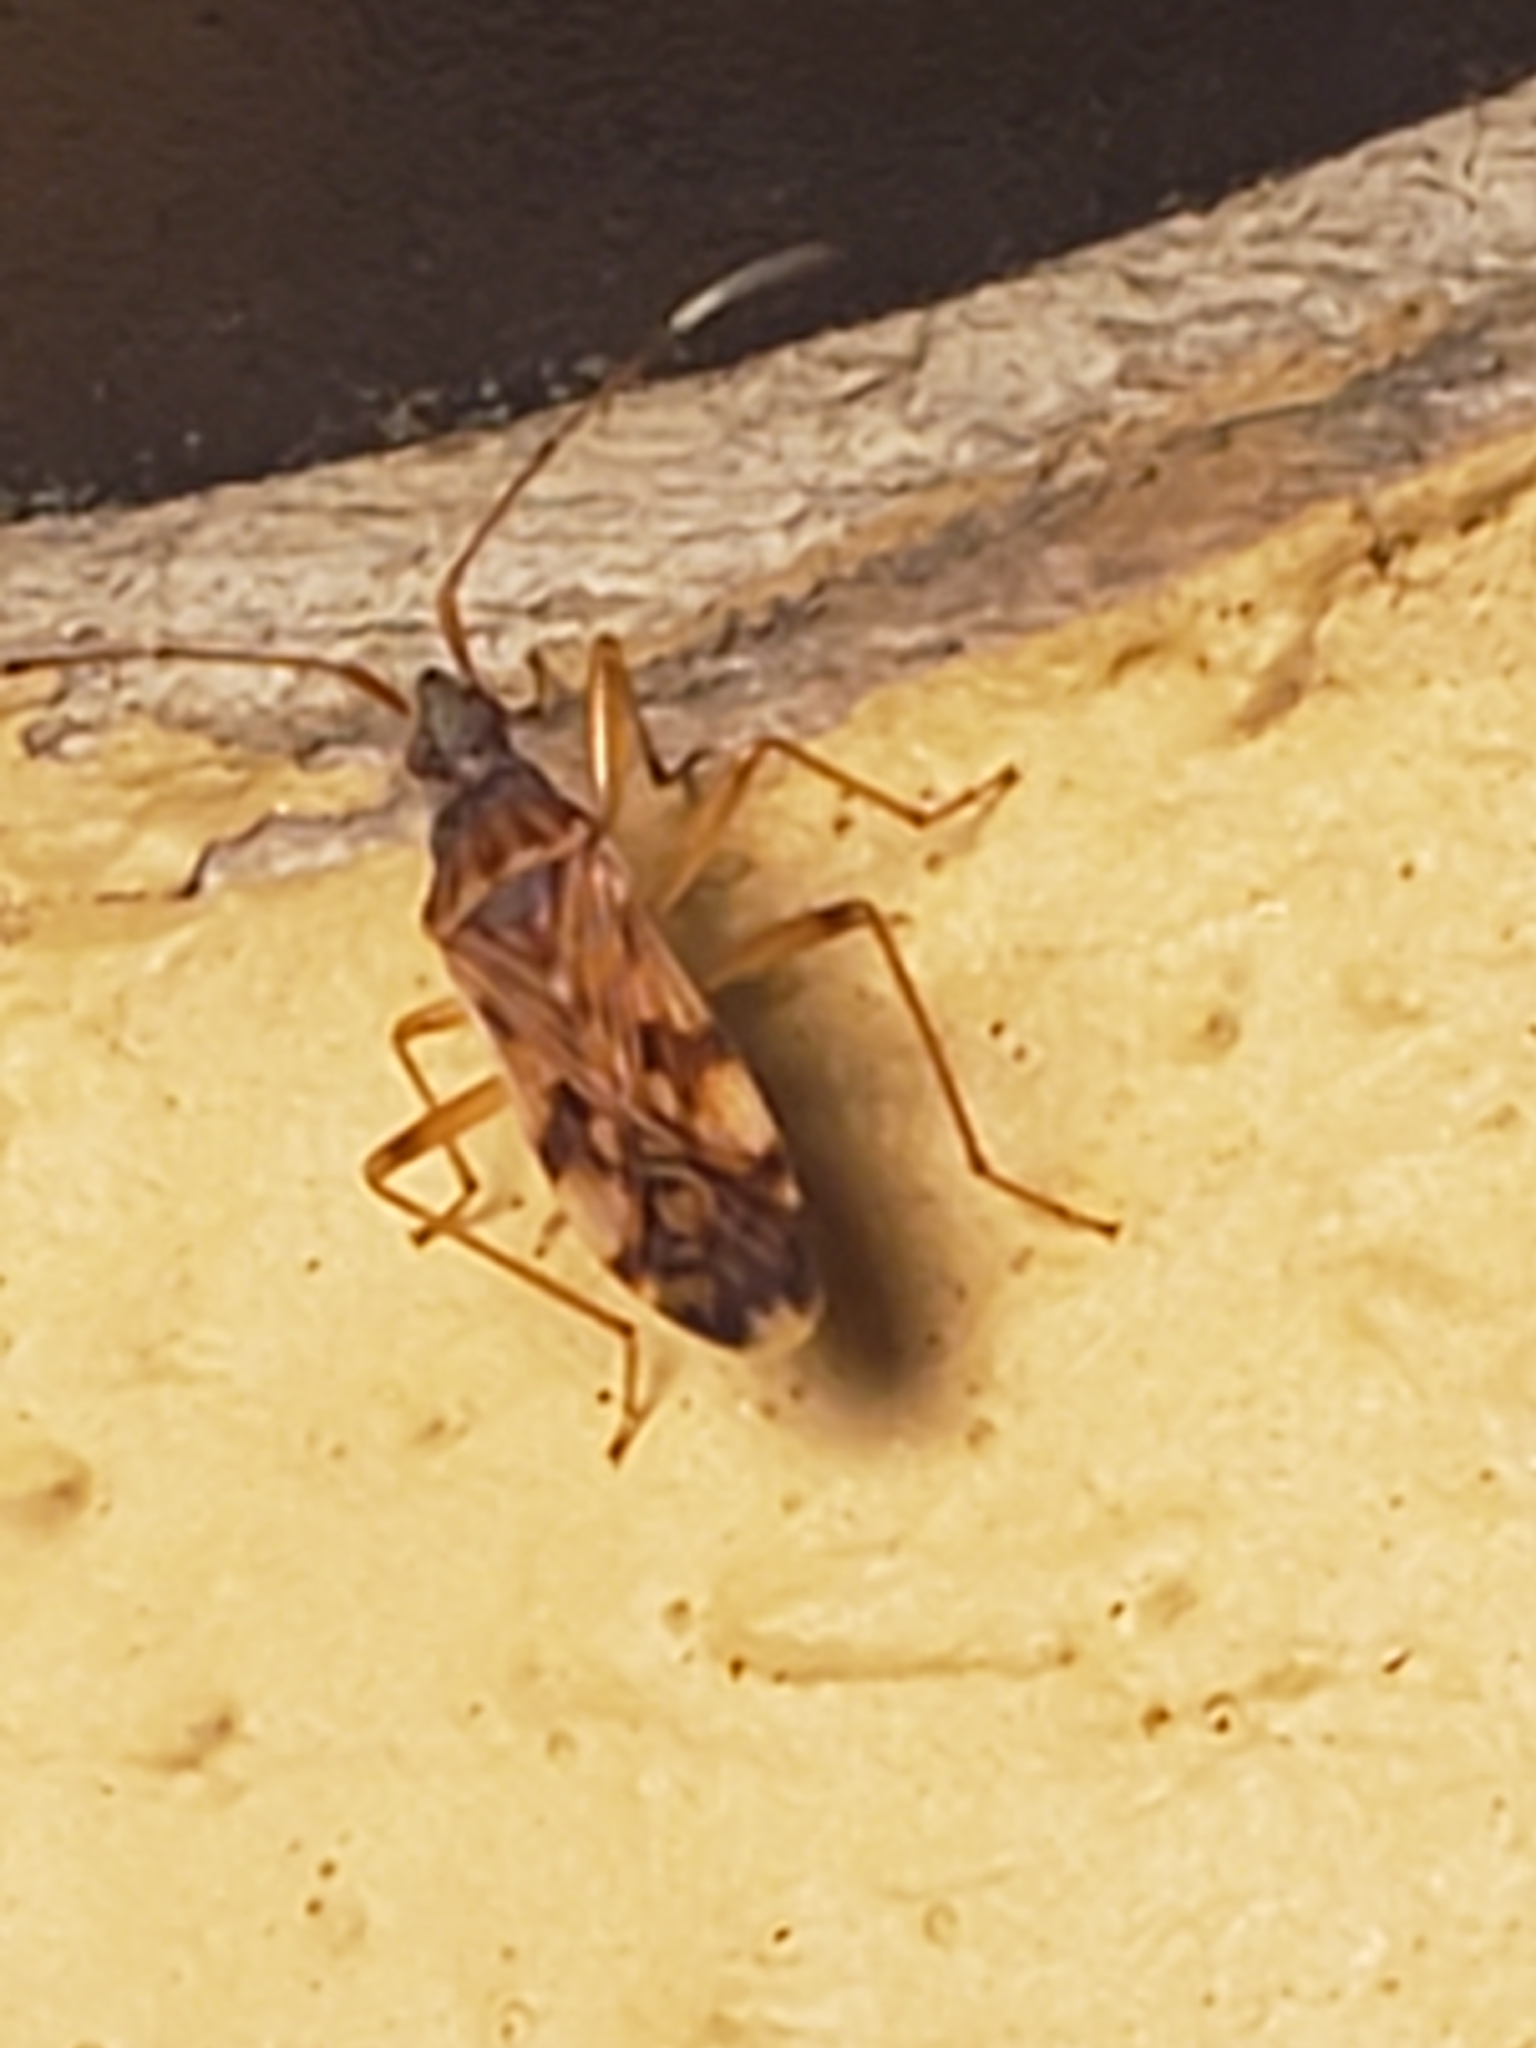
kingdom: Animalia
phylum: Arthropoda
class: Insecta
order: Hemiptera
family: Rhyparochromidae
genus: Ozophora
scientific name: Ozophora picturata
